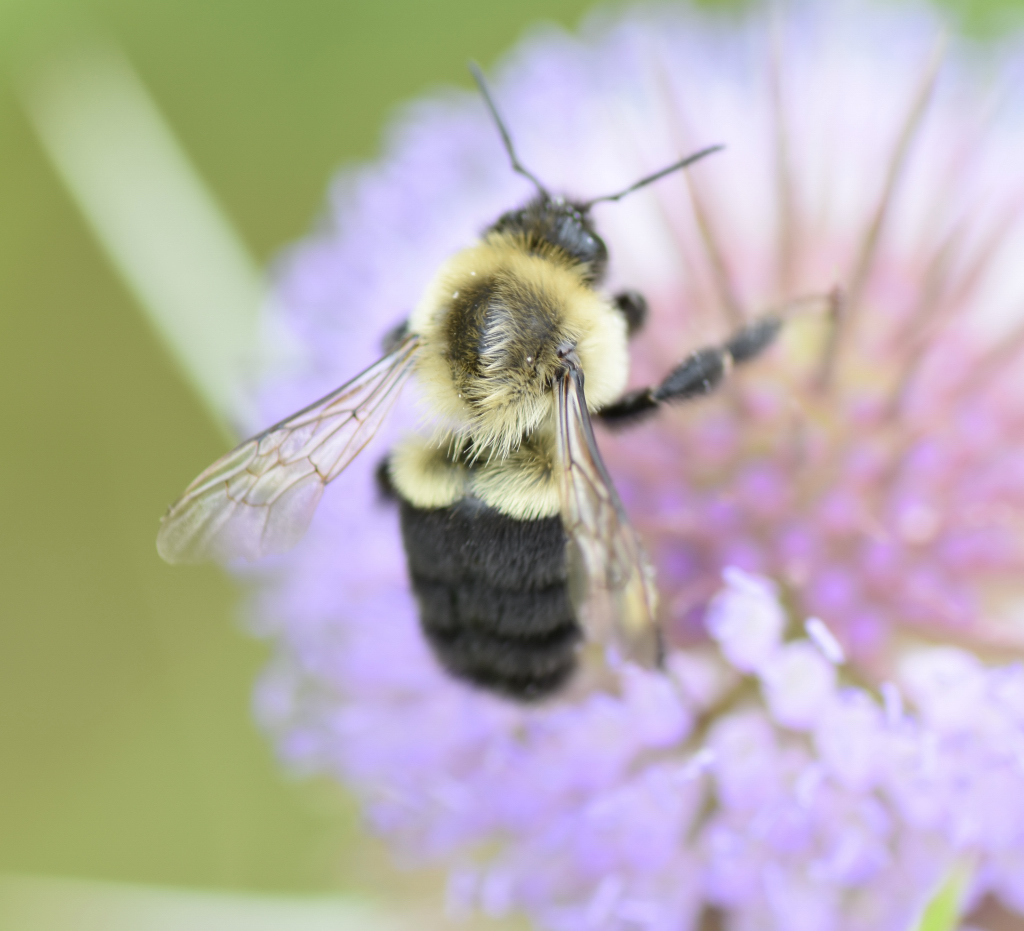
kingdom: Animalia
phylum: Arthropoda
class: Insecta
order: Hymenoptera
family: Apidae
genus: Bombus
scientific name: Bombus impatiens
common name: Common eastern bumble bee
